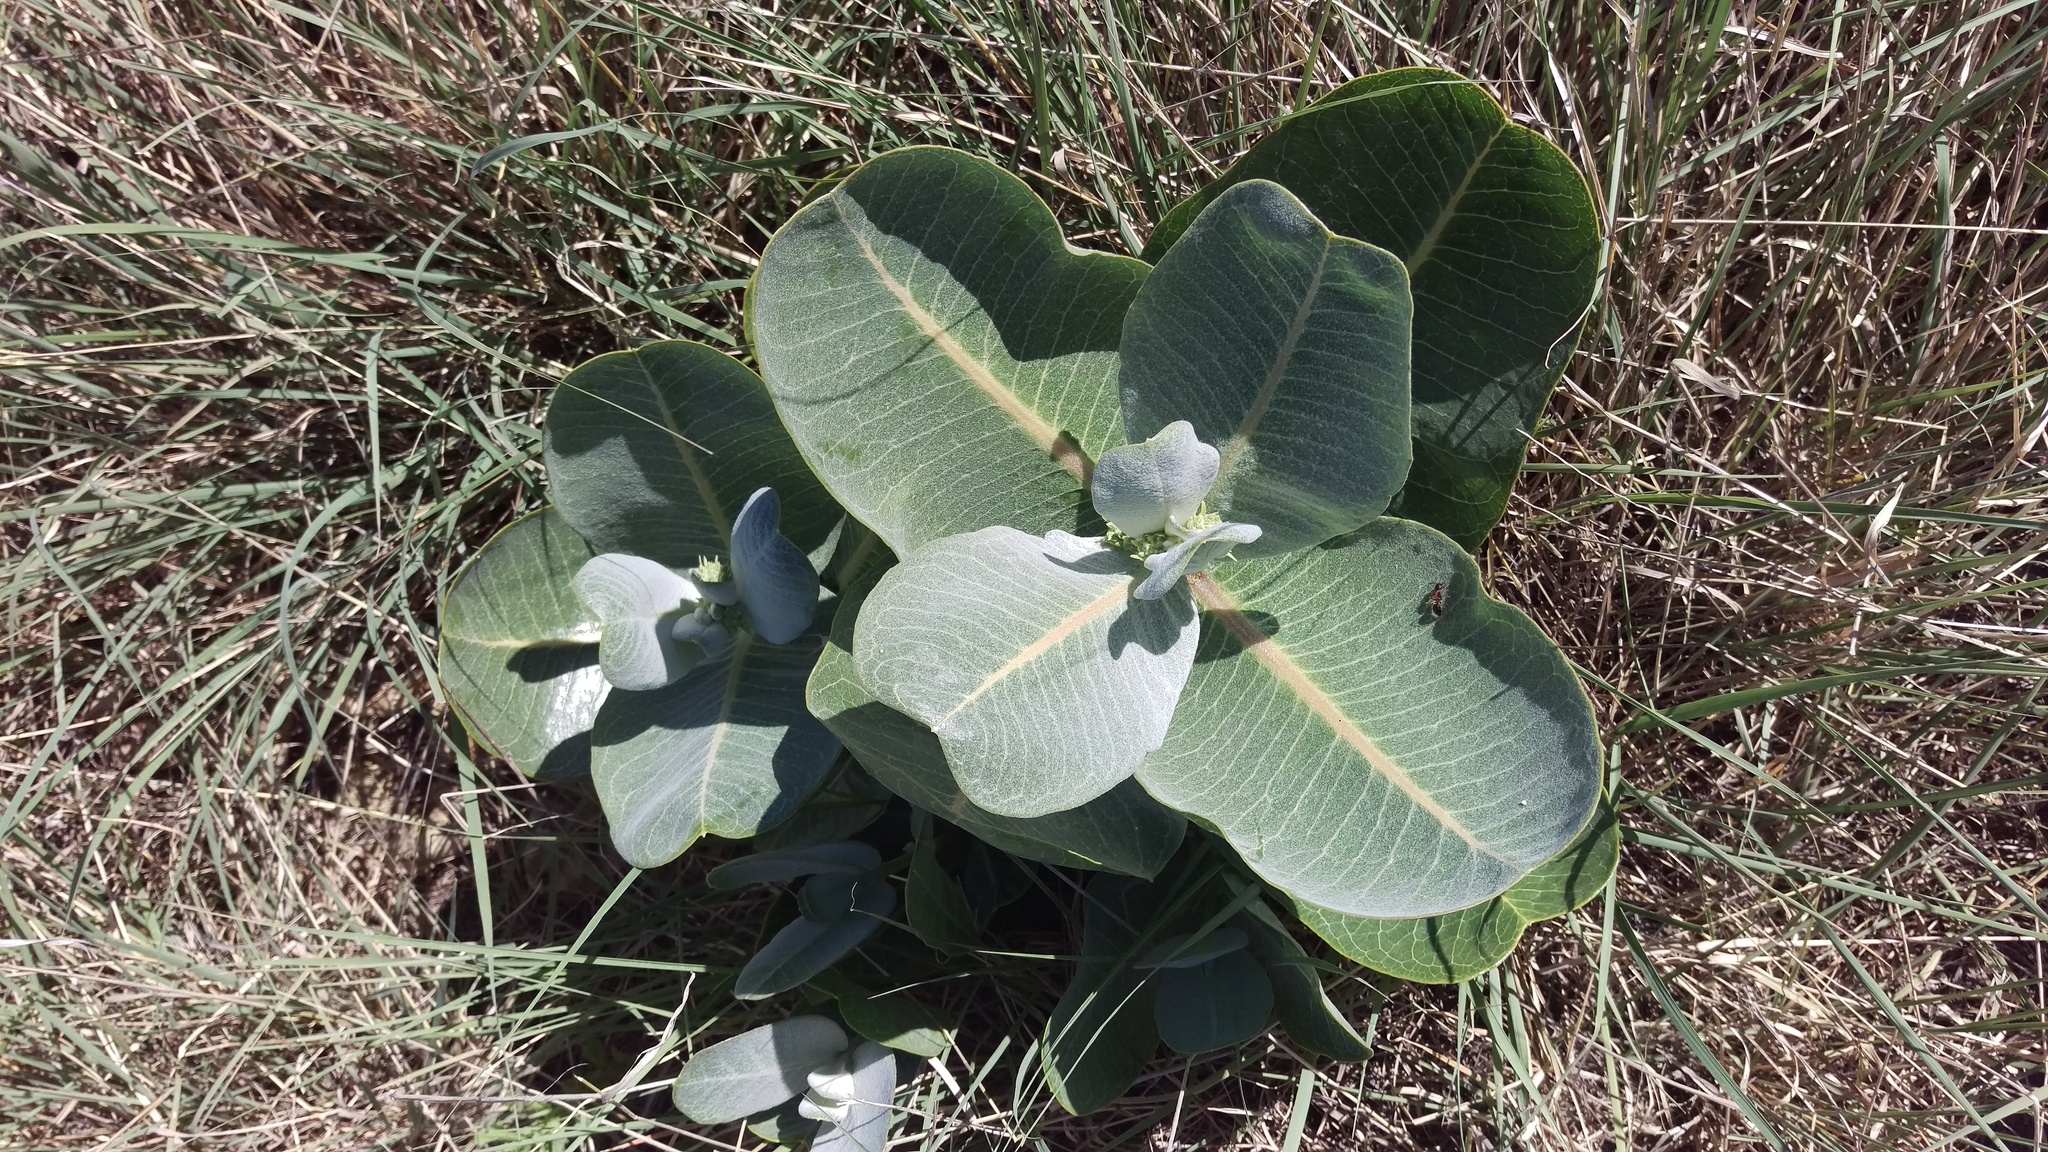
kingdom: Plantae
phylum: Tracheophyta
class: Magnoliopsida
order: Gentianales
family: Apocynaceae
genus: Asclepias
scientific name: Asclepias latifolia
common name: Broadleaf milkweed
